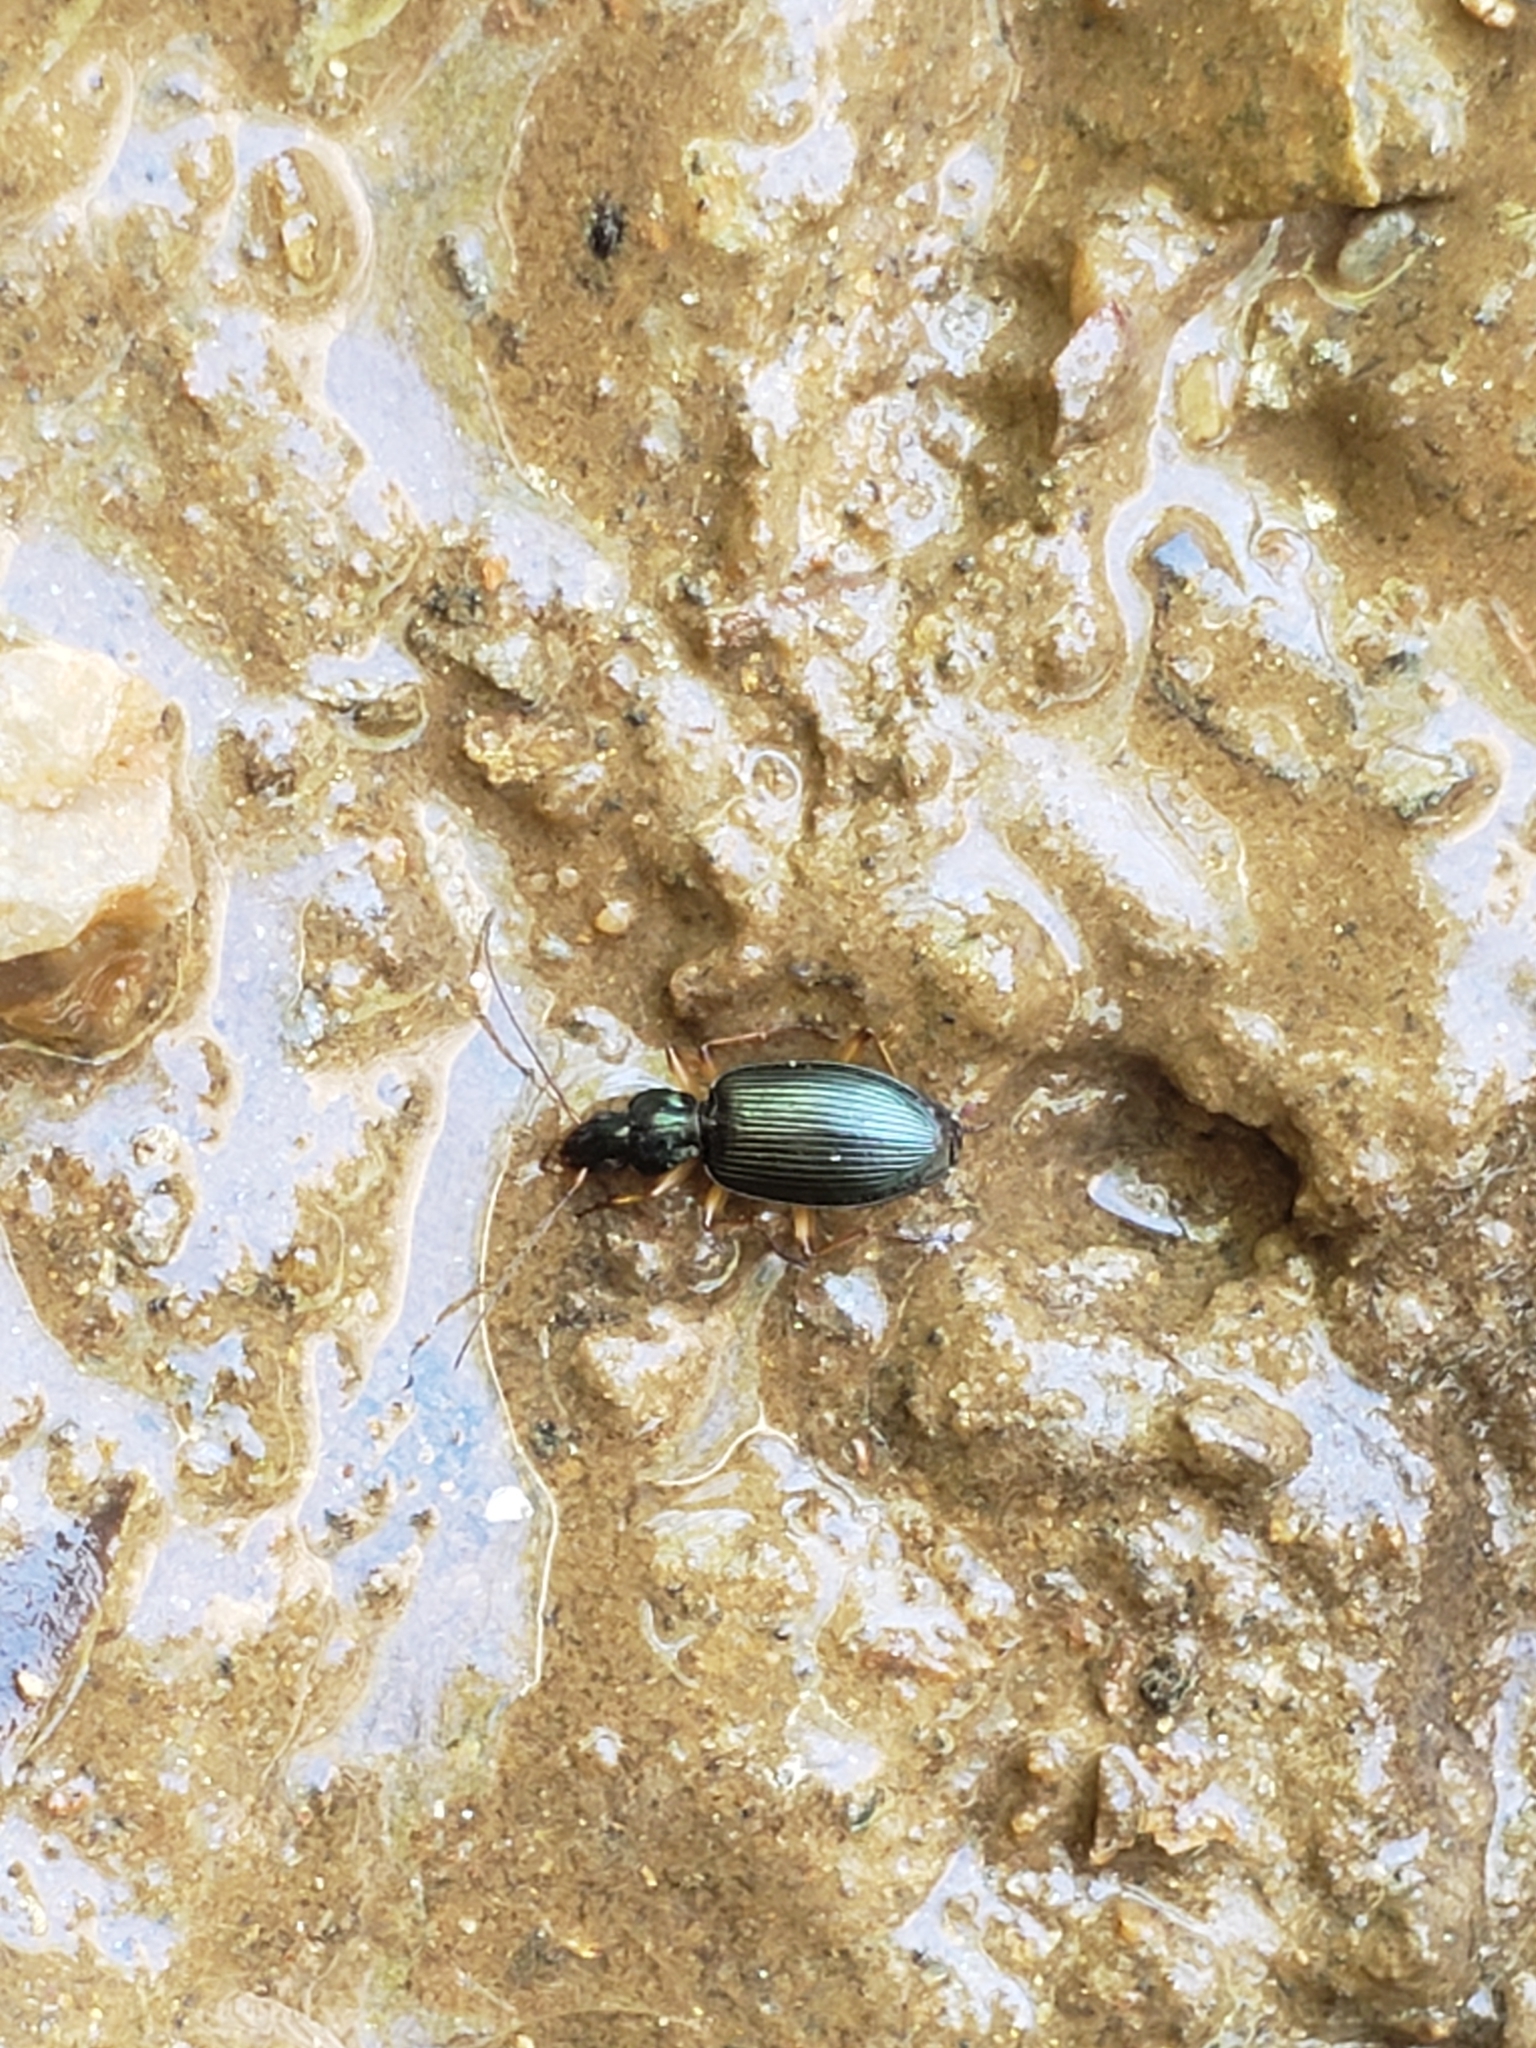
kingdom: Animalia
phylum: Arthropoda
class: Insecta
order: Coleoptera
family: Carabidae
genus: Agonum
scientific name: Agonum extensicolle
